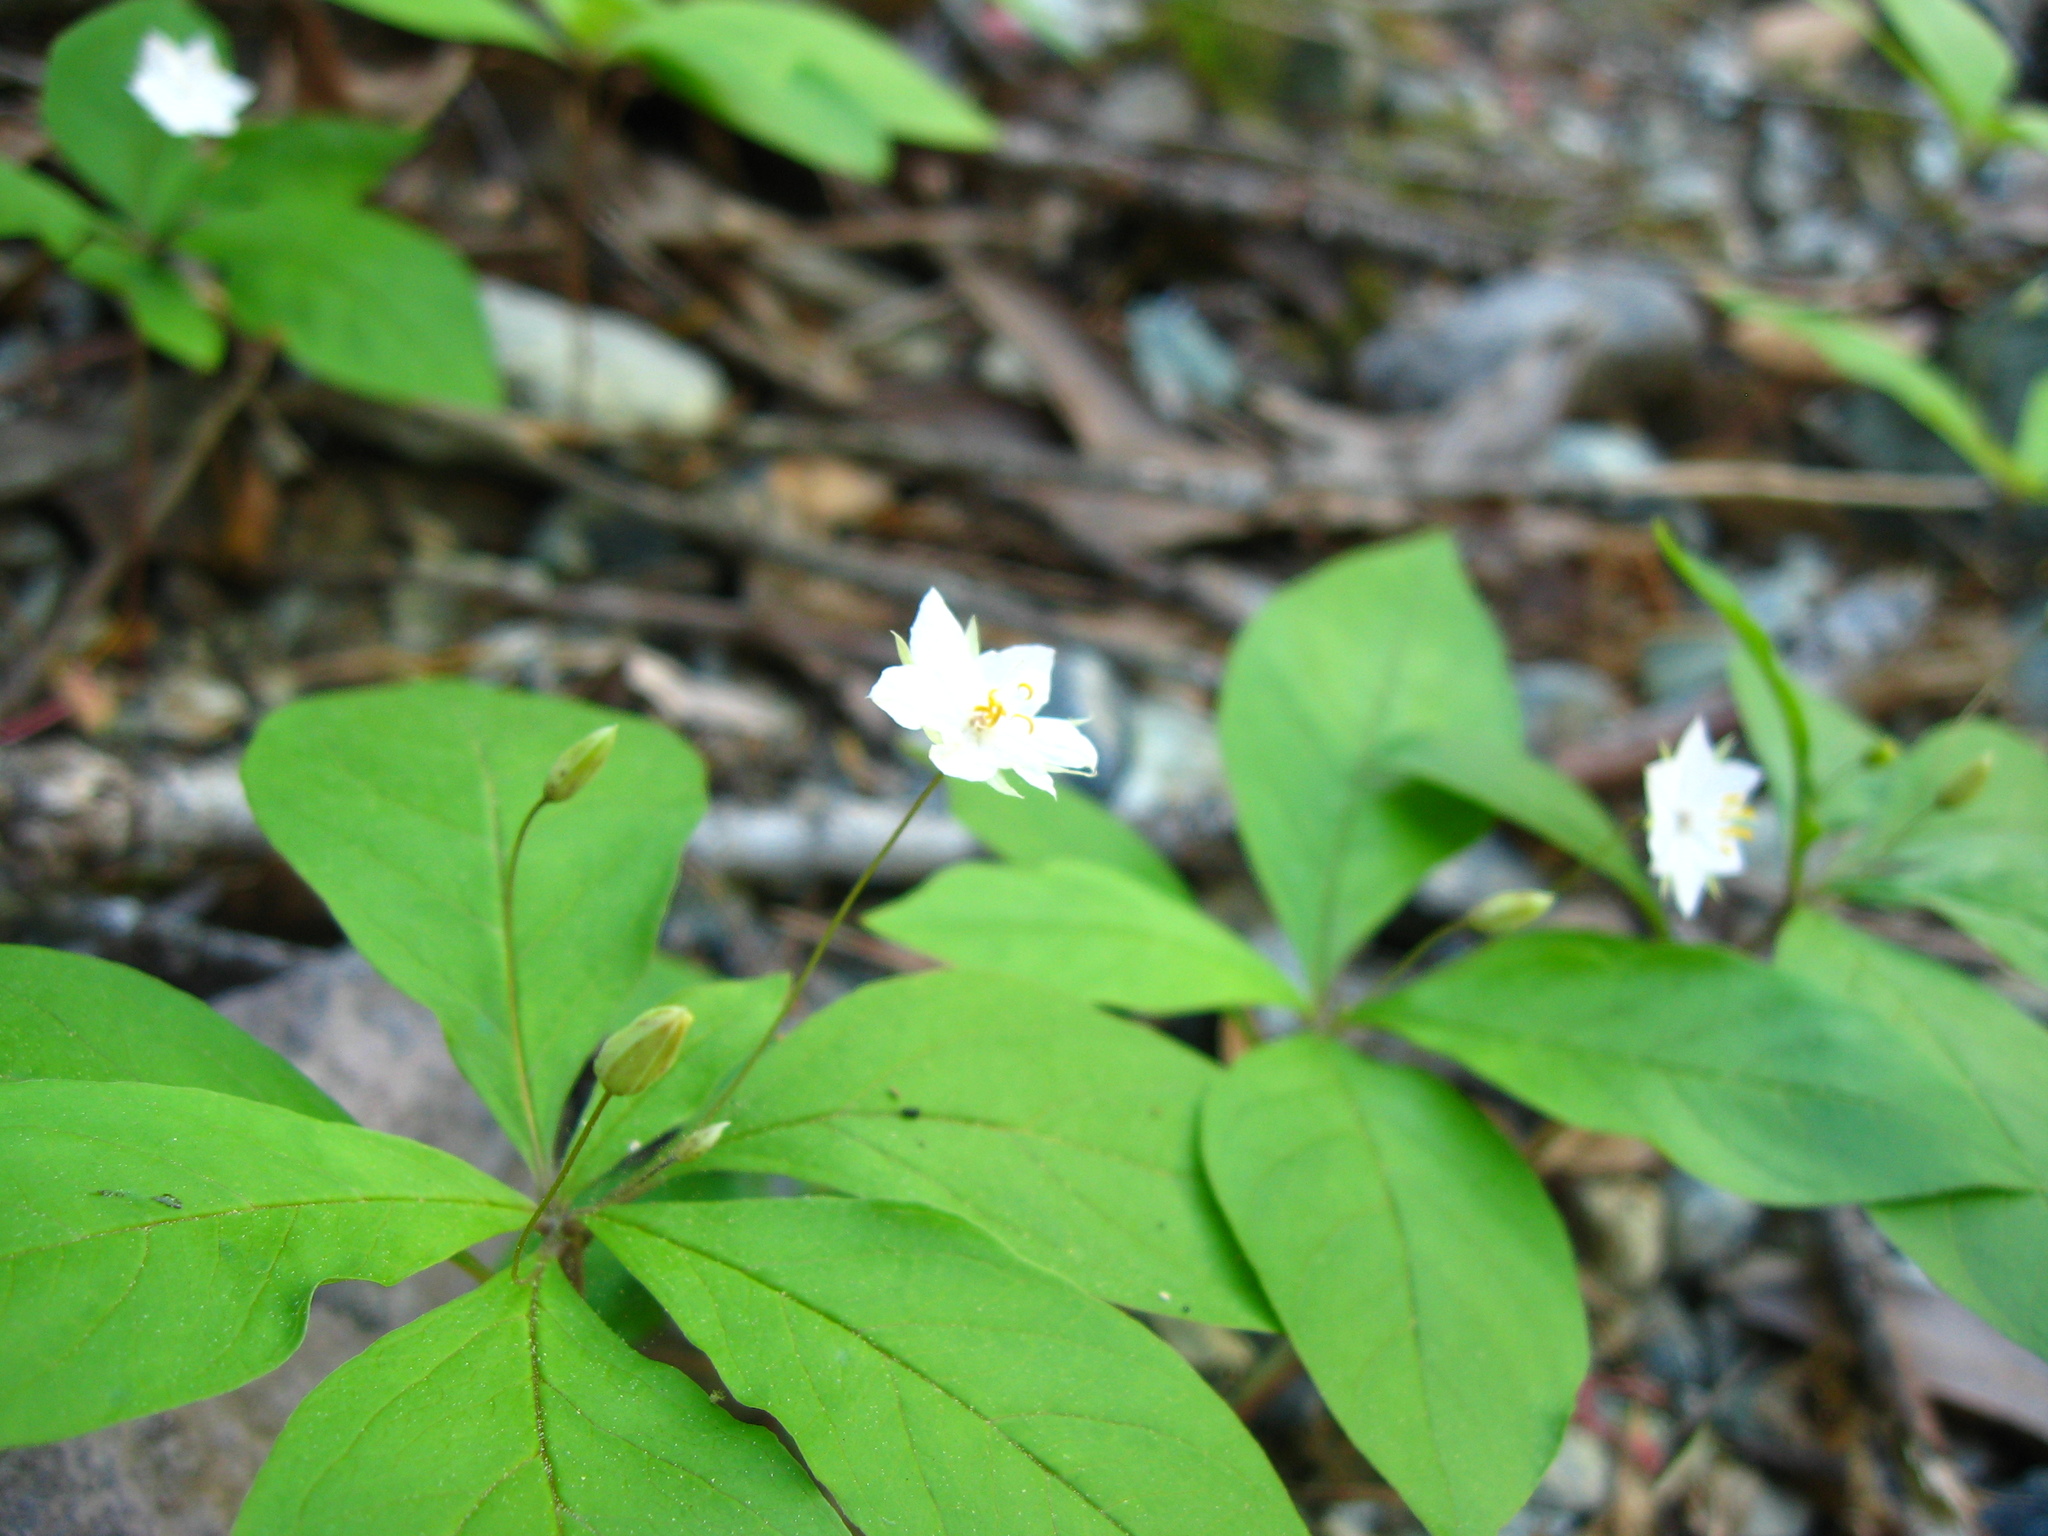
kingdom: Plantae
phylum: Tracheophyta
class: Magnoliopsida
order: Ericales
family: Primulaceae
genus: Lysimachia
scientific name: Lysimachia latifolia
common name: Pacific starflower
